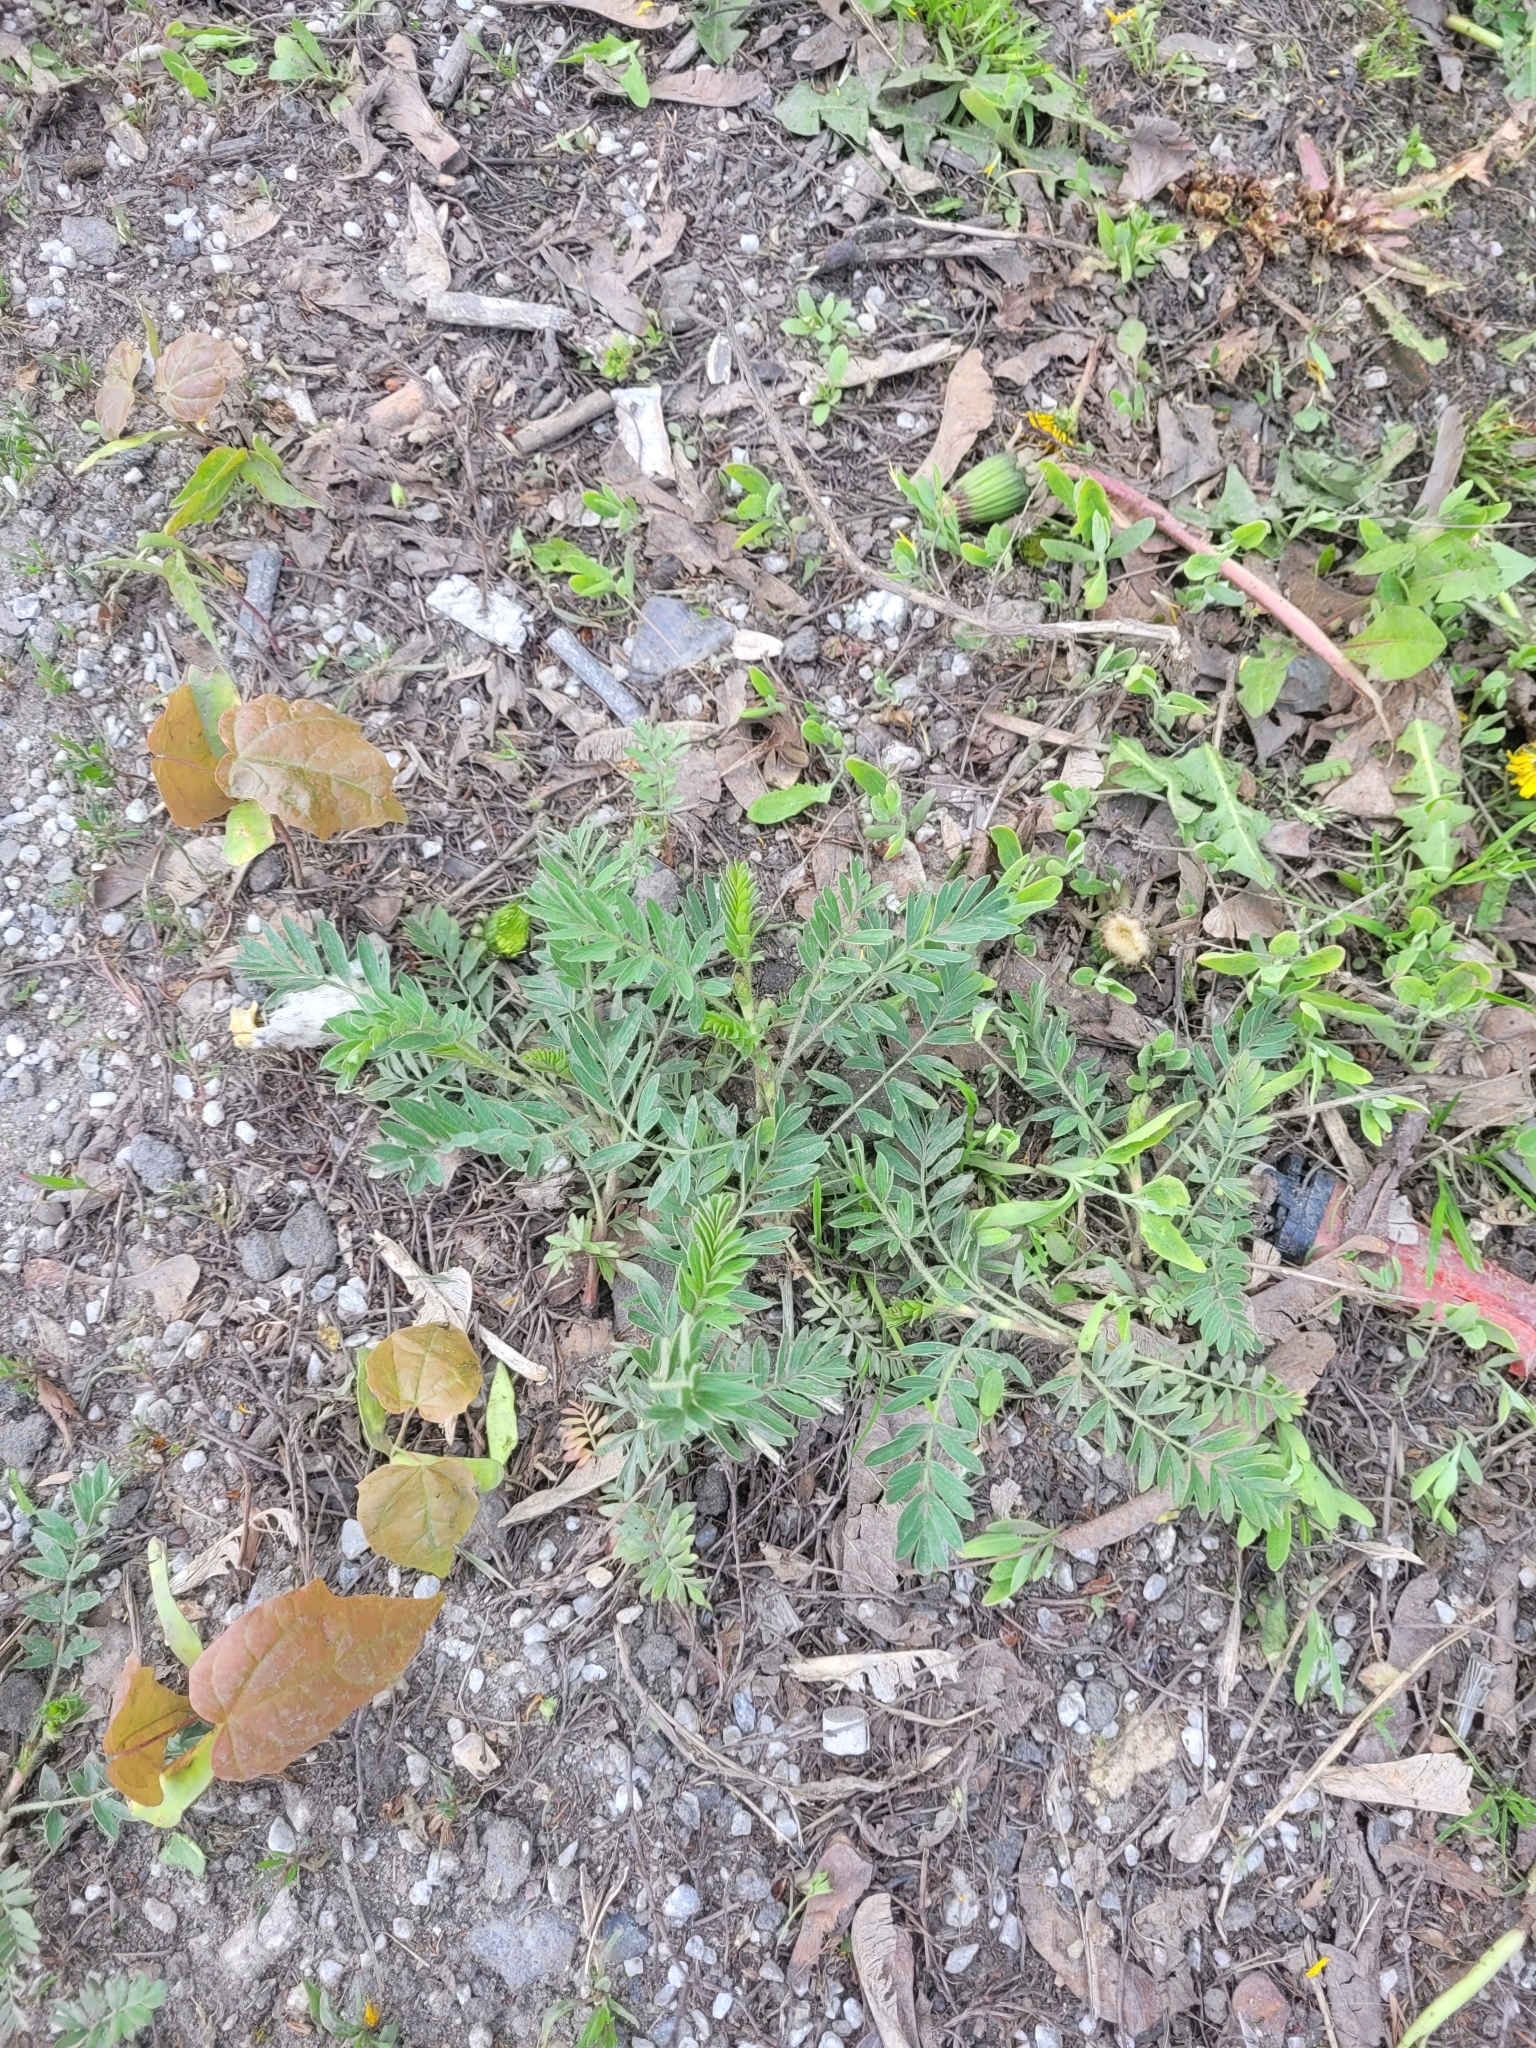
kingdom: Plantae
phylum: Tracheophyta
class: Magnoliopsida
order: Rosales
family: Rosaceae
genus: Sibbaldianthe
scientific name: Sibbaldianthe bifurca
